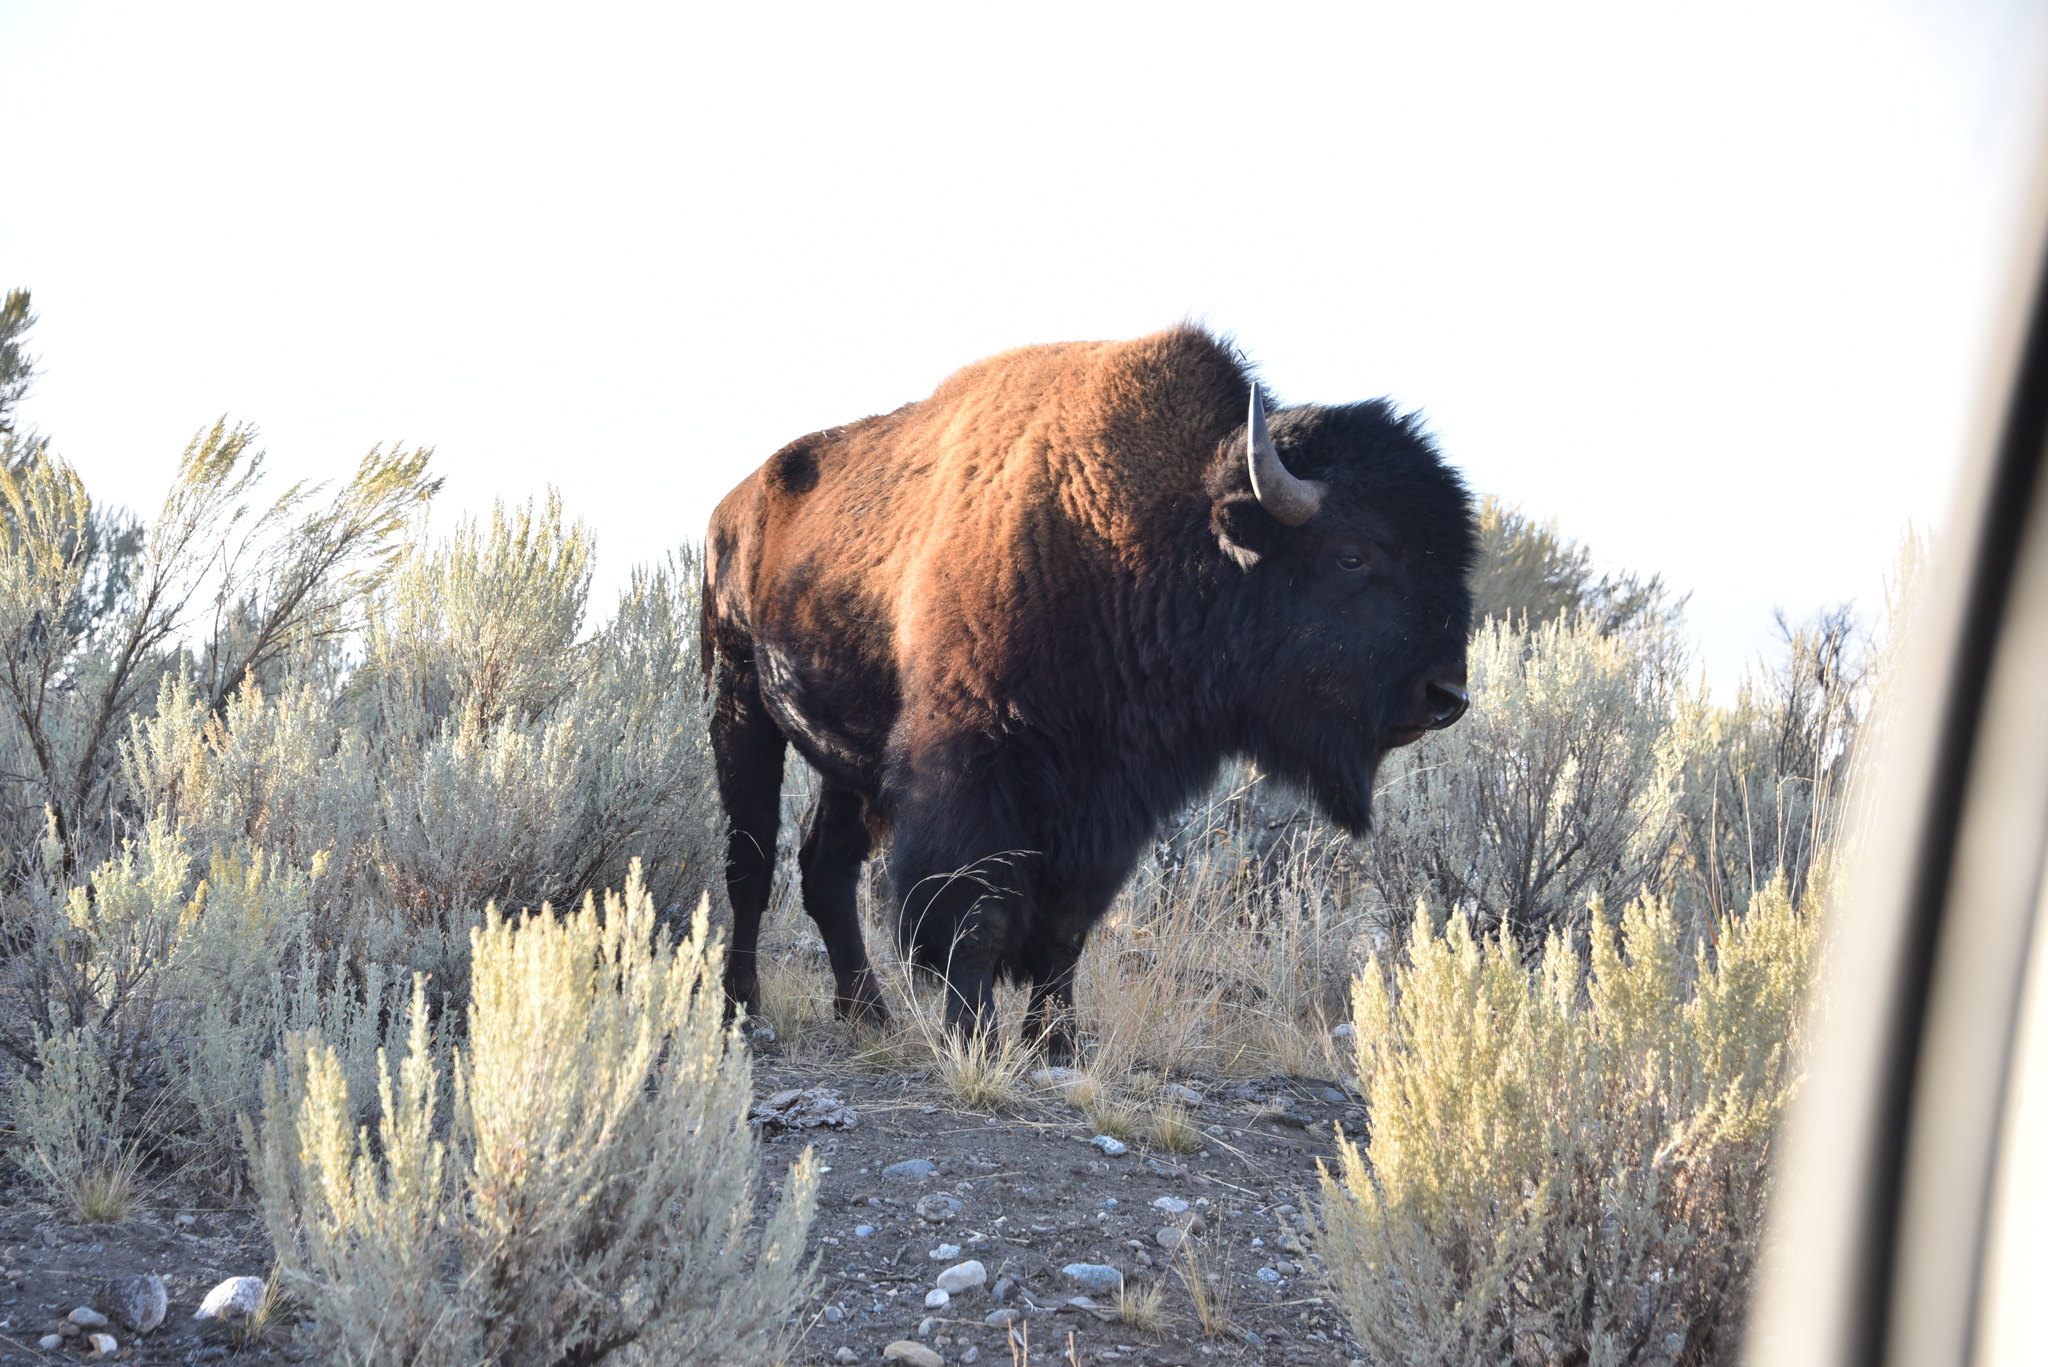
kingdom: Animalia
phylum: Chordata
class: Mammalia
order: Artiodactyla
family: Bovidae
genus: Bison
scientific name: Bison bison
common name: American bison
